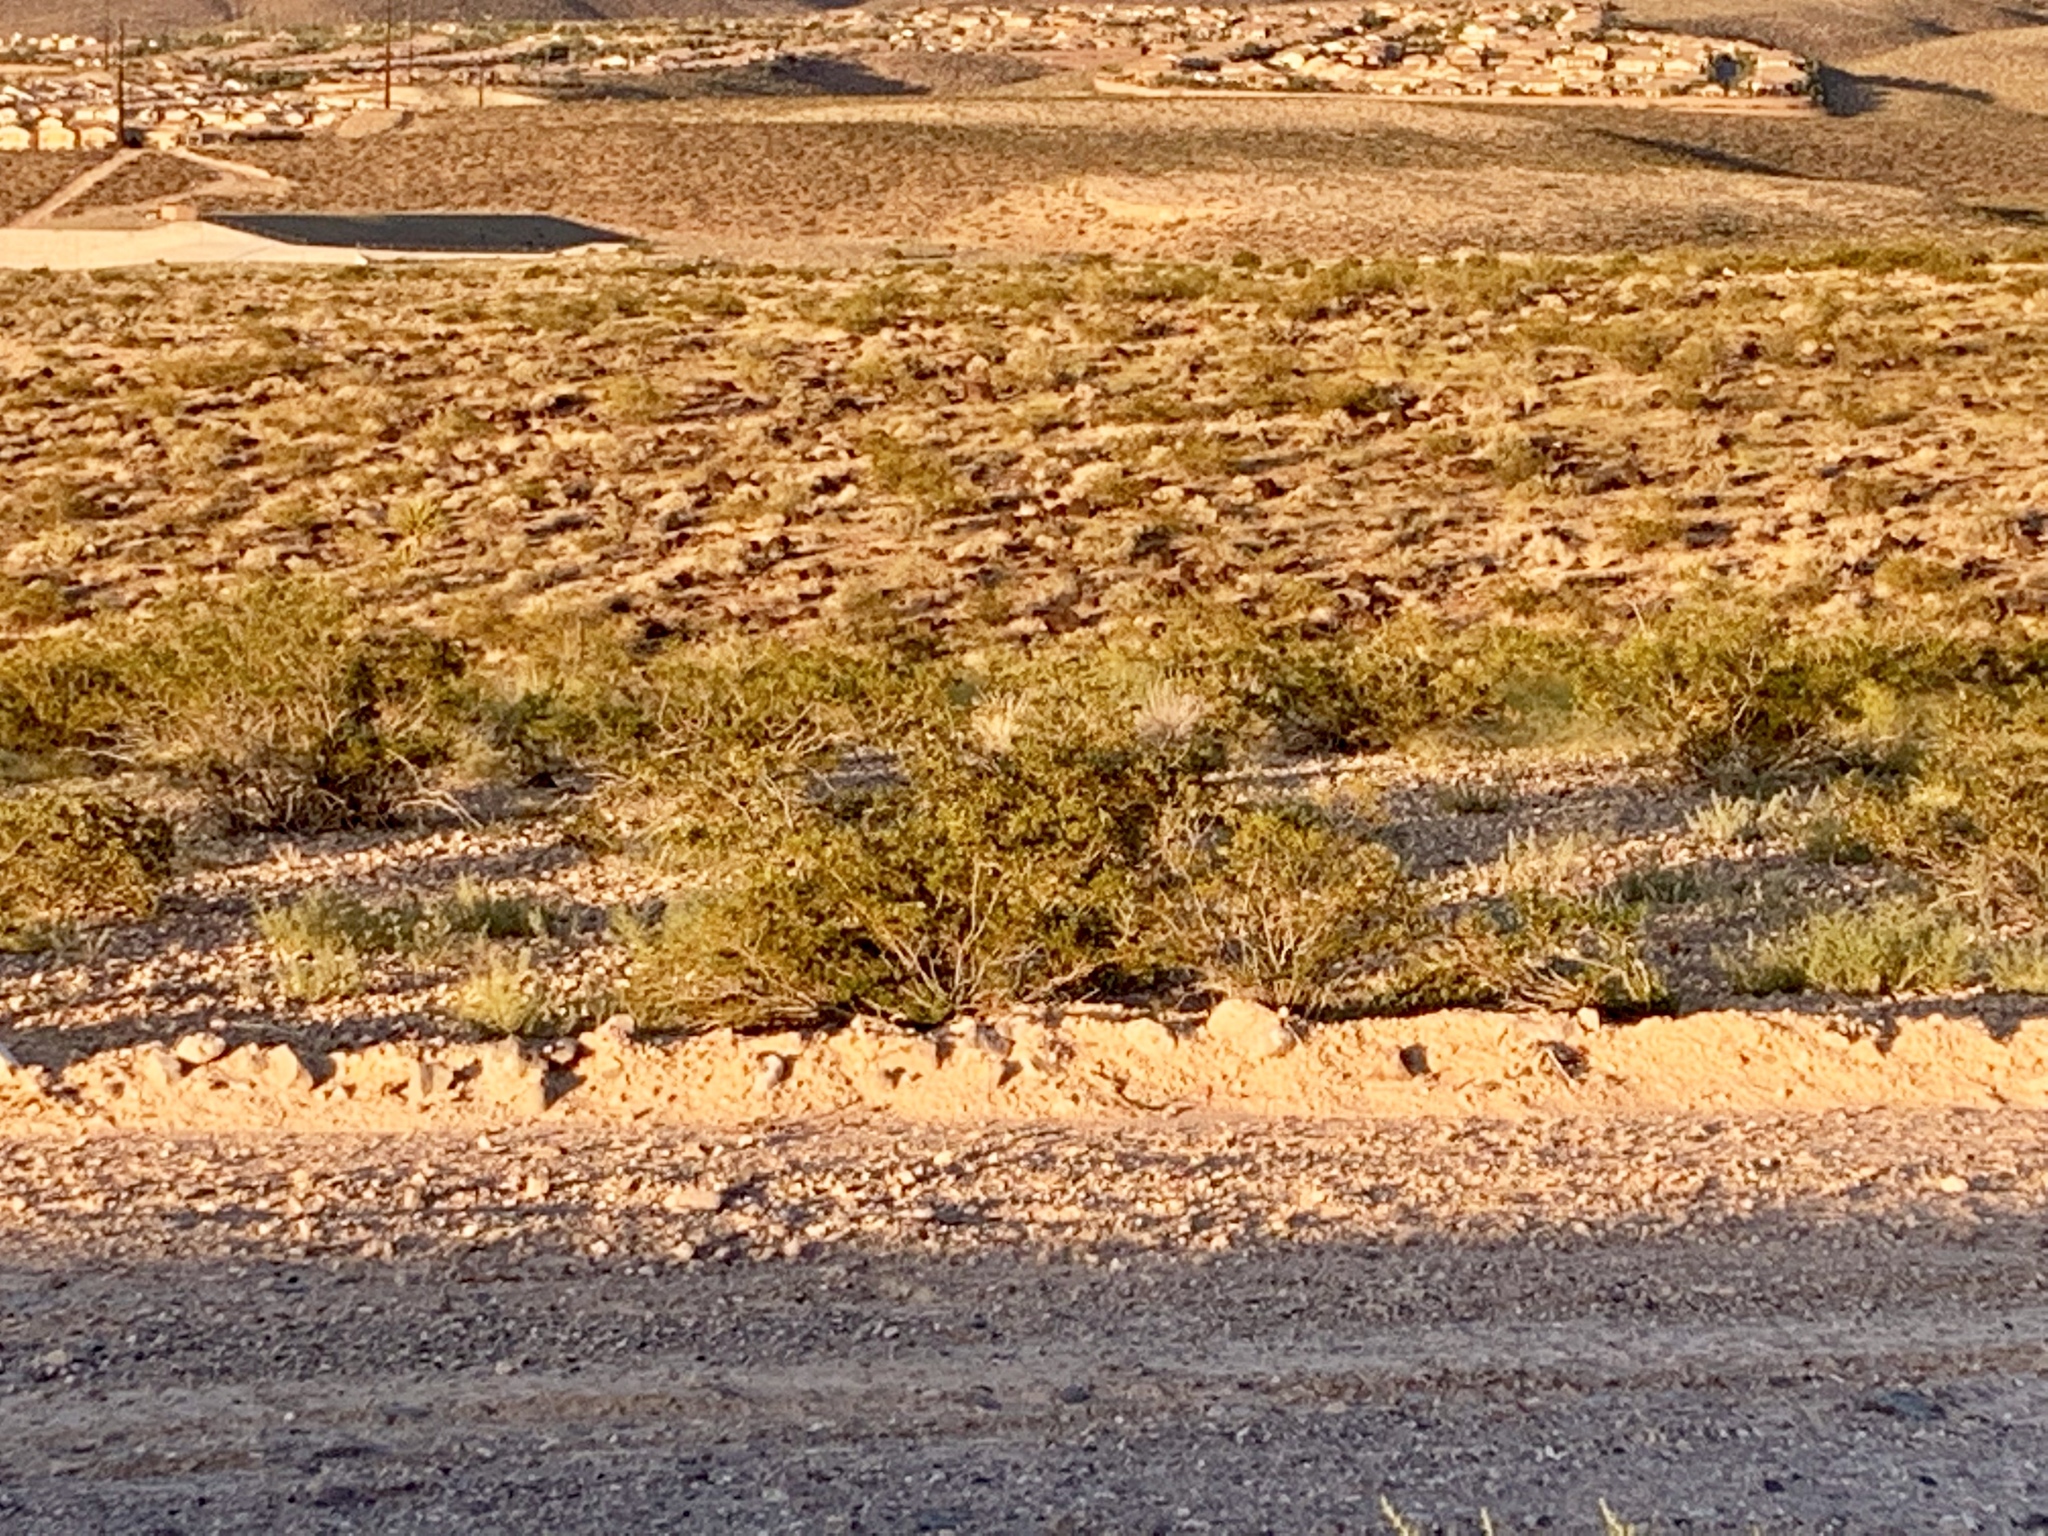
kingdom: Plantae
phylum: Tracheophyta
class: Magnoliopsida
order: Zygophyllales
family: Zygophyllaceae
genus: Larrea
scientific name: Larrea tridentata
